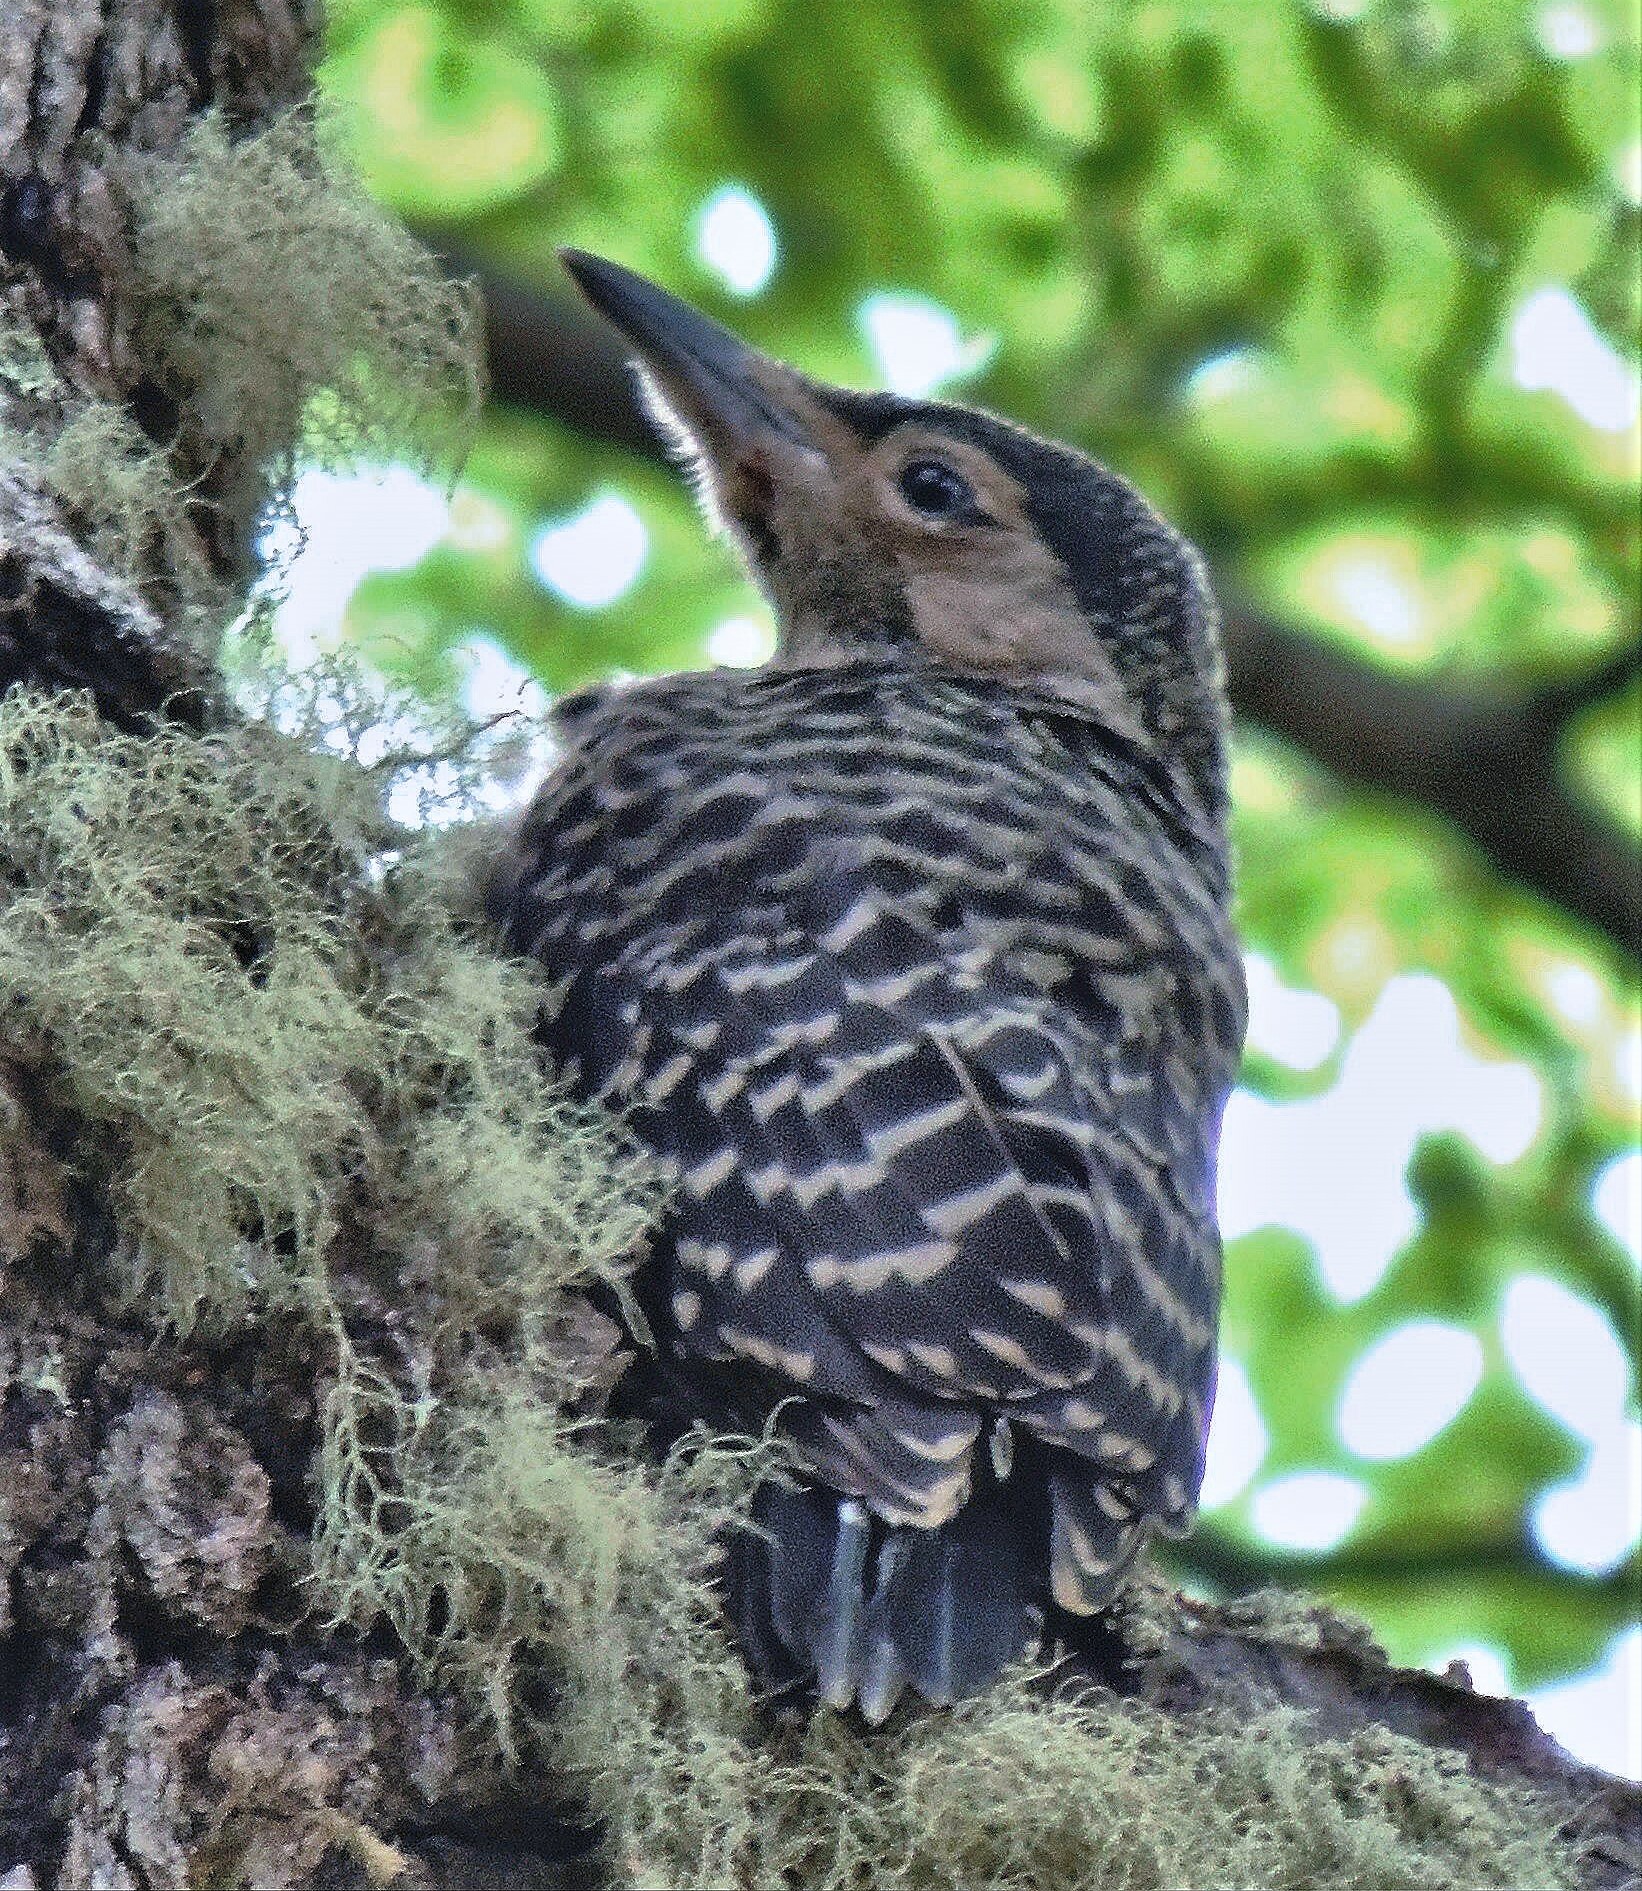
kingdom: Animalia
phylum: Chordata
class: Aves
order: Piciformes
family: Picidae
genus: Colaptes
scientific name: Colaptes pitius
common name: Chilean flicker
